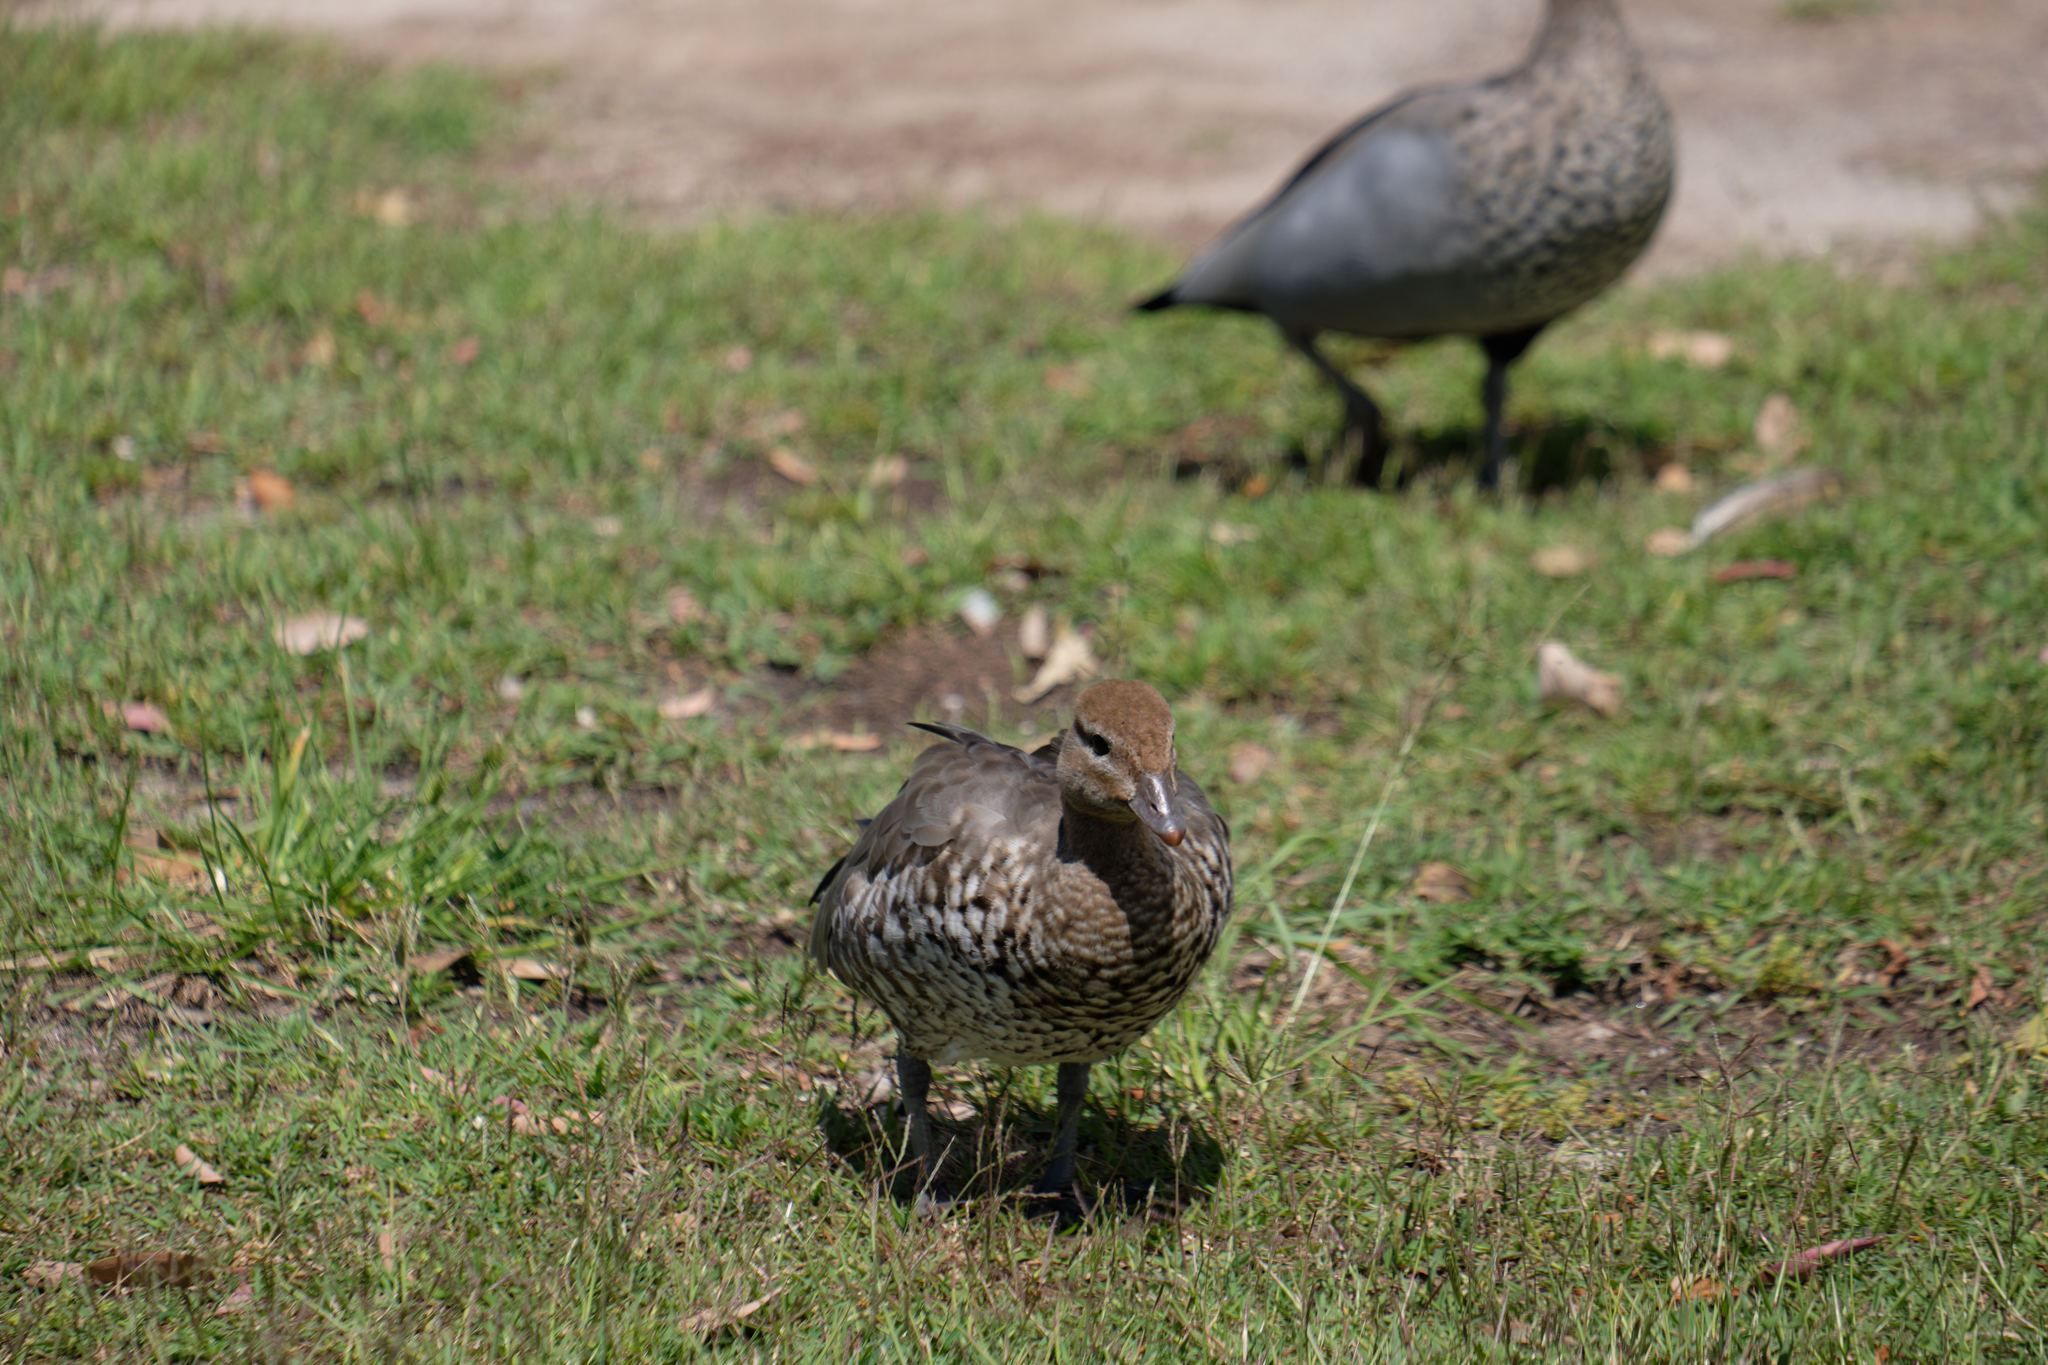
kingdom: Animalia
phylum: Chordata
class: Aves
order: Anseriformes
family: Anatidae
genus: Chenonetta
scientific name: Chenonetta jubata
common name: Maned duck
